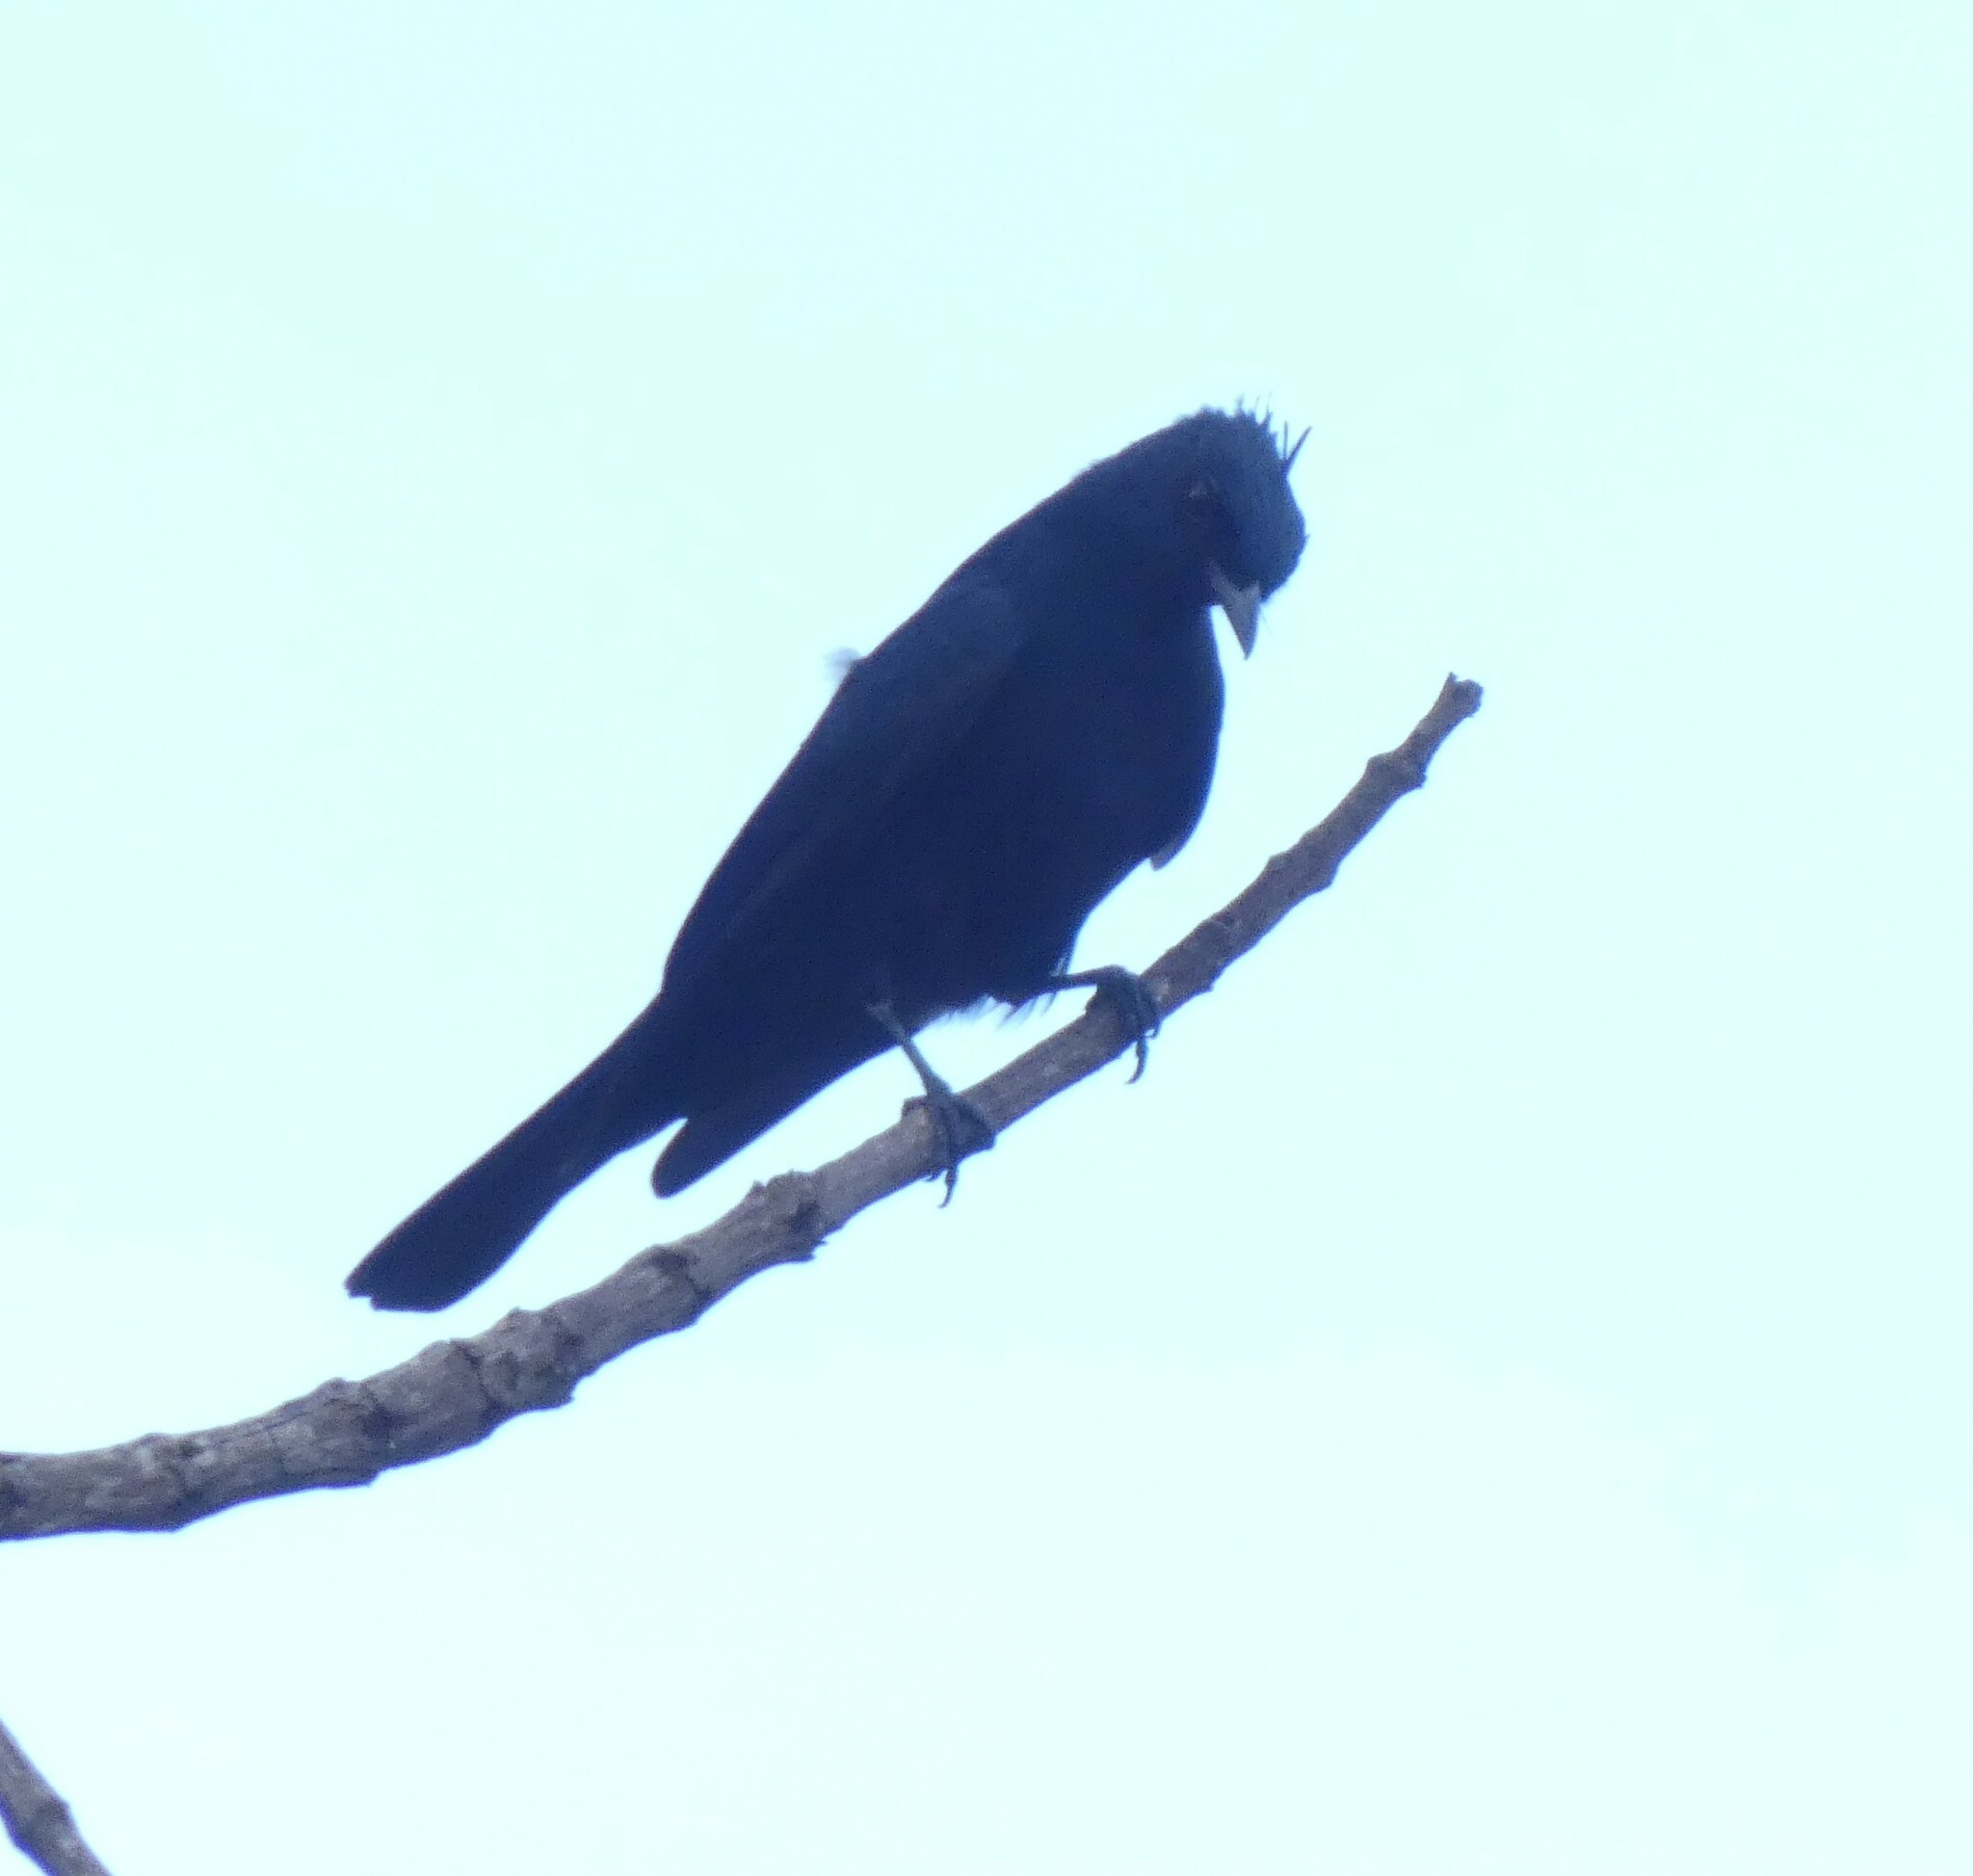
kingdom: Animalia
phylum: Chordata
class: Aves
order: Passeriformes
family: Tyrannidae
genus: Knipolegus
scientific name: Knipolegus lophotes
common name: Crested black tyrant
